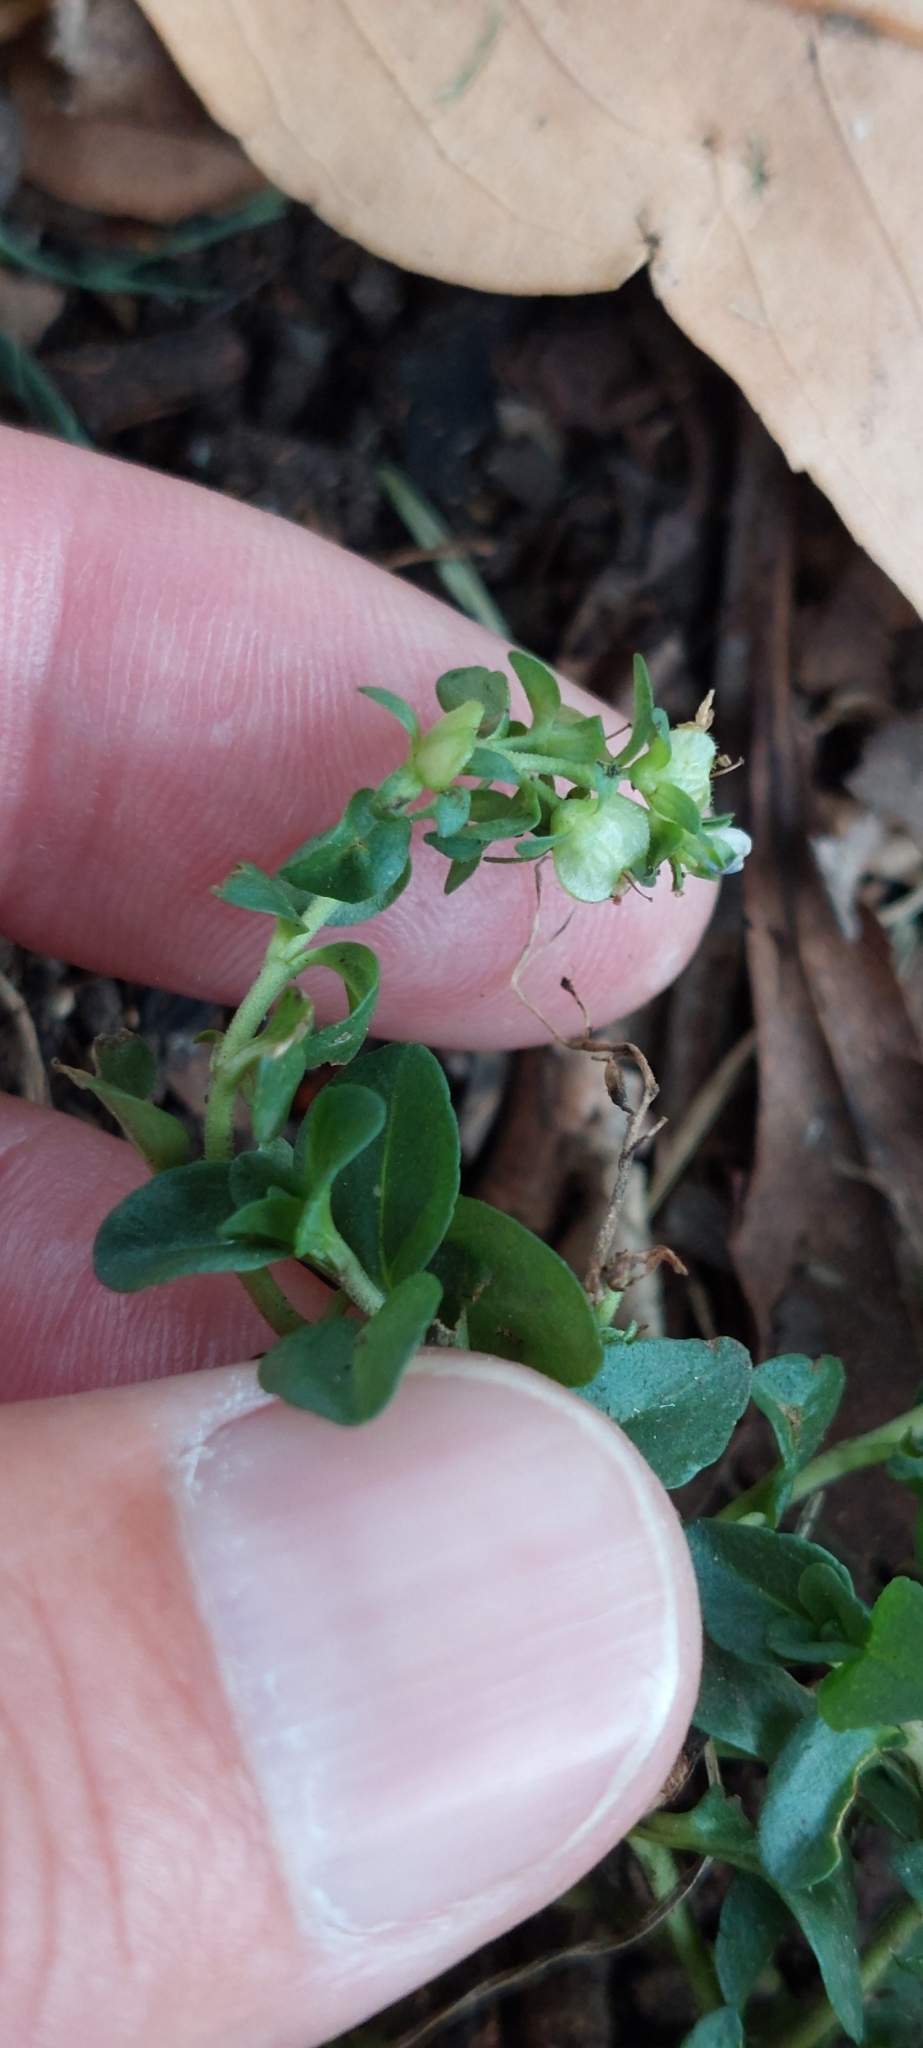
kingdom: Plantae
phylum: Tracheophyta
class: Magnoliopsida
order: Lamiales
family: Plantaginaceae
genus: Veronica
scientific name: Veronica serpyllifolia
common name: Thyme-leaved speedwell
